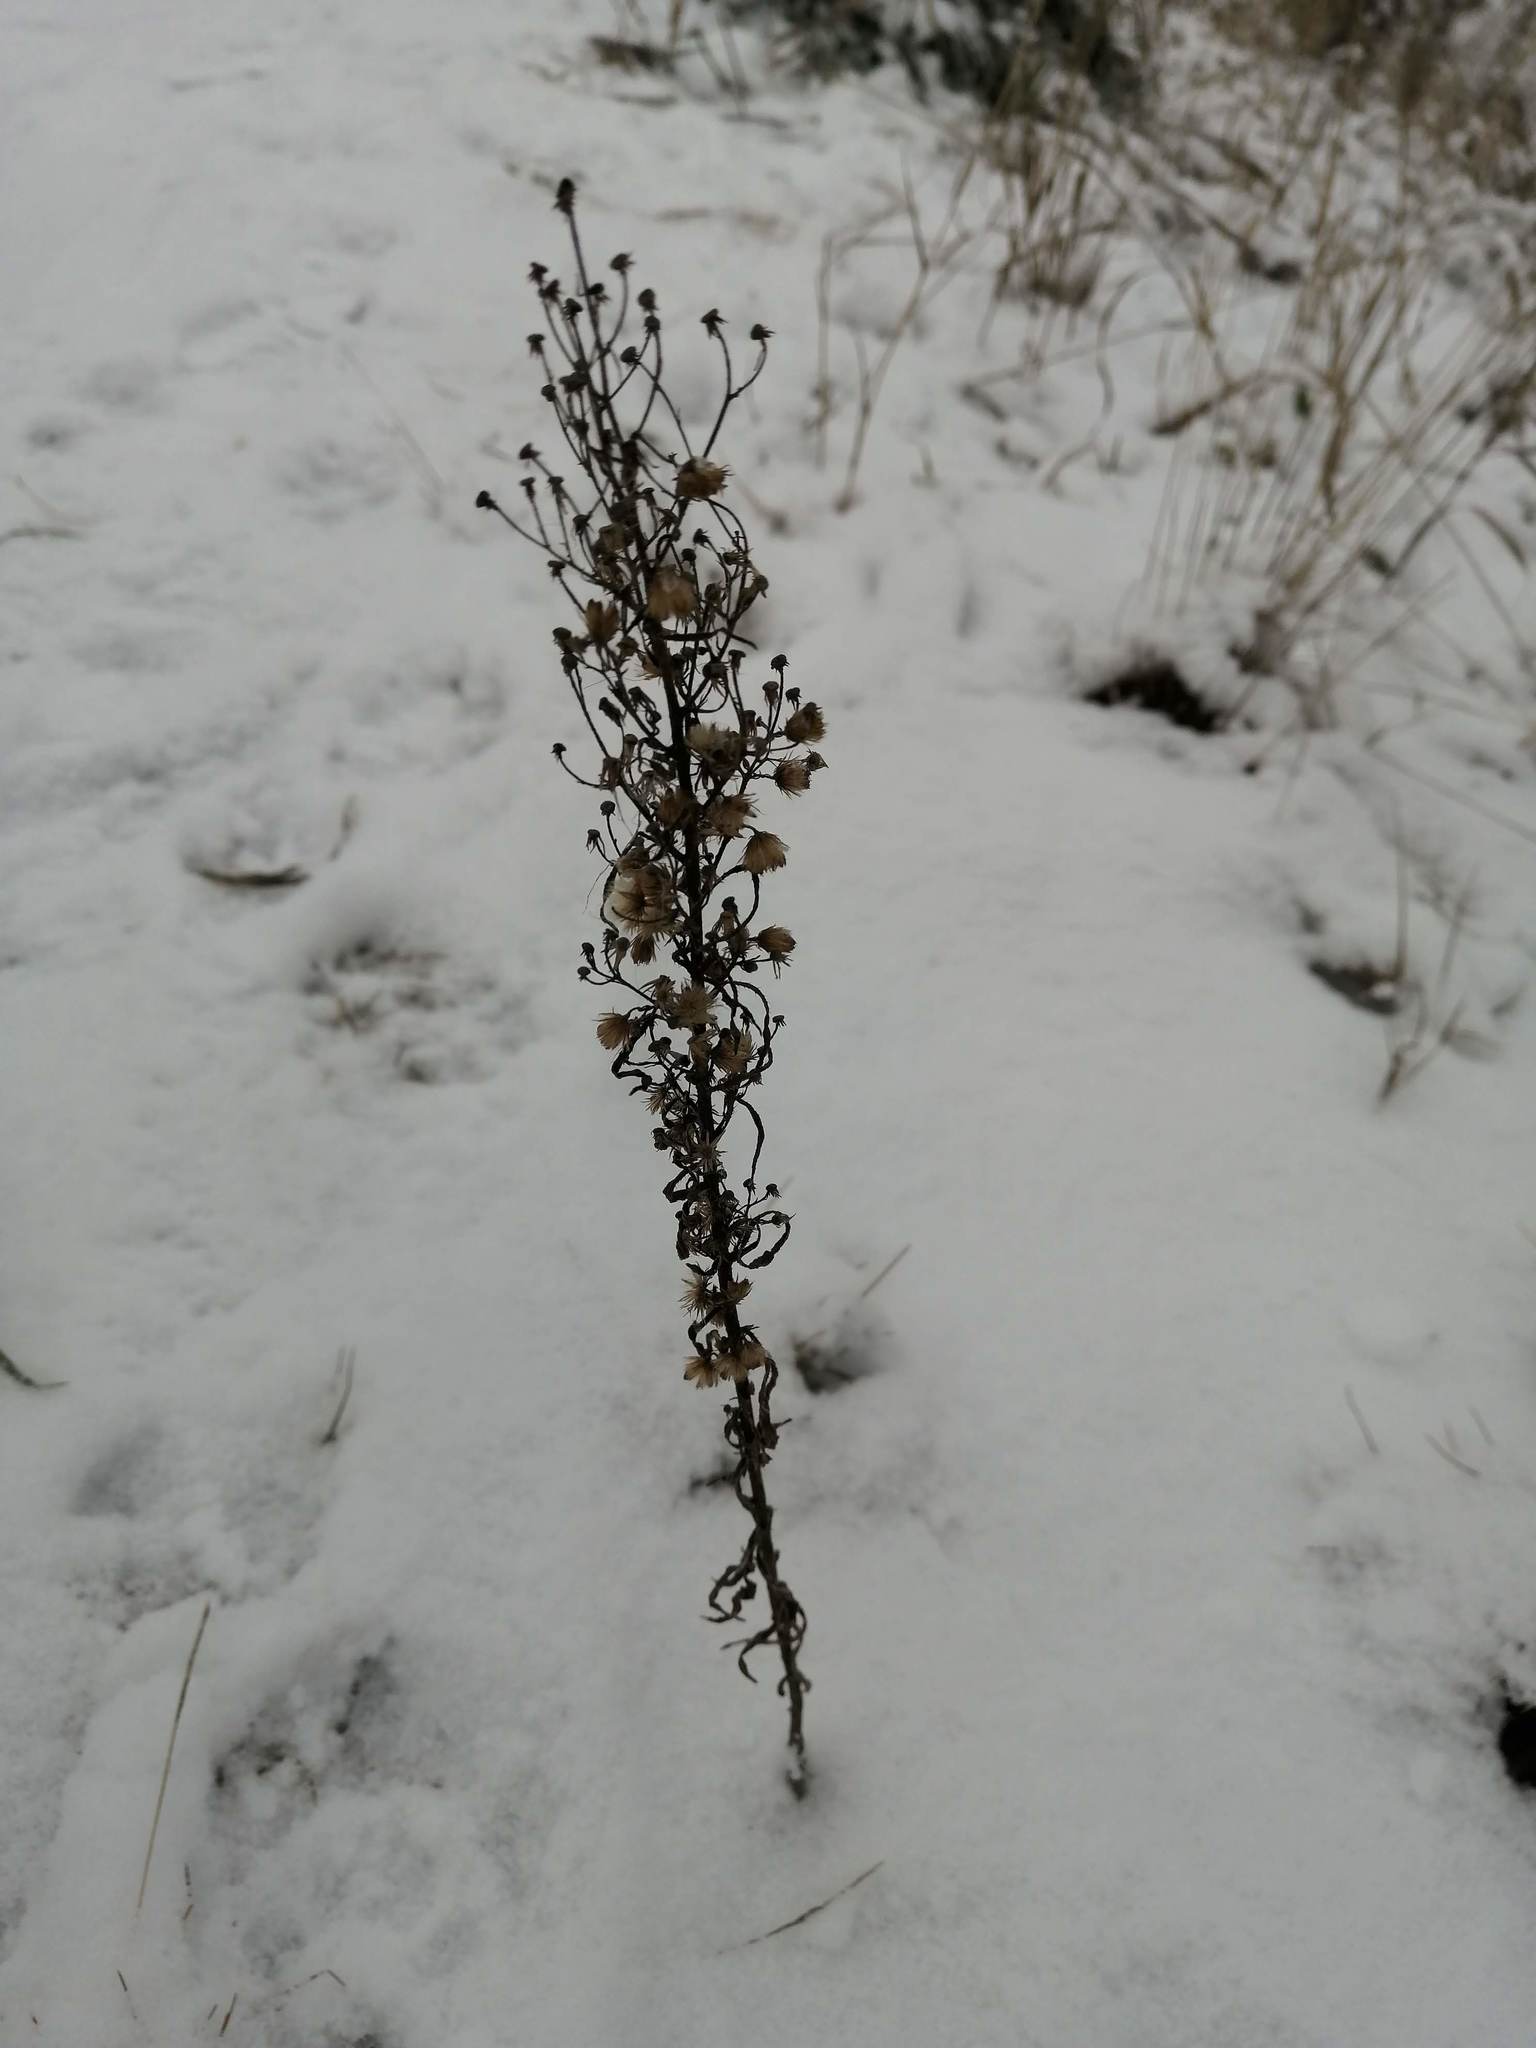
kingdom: Plantae
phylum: Tracheophyta
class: Magnoliopsida
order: Asterales
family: Asteraceae
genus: Erigeron
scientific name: Erigeron canadensis
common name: Canadian fleabane
